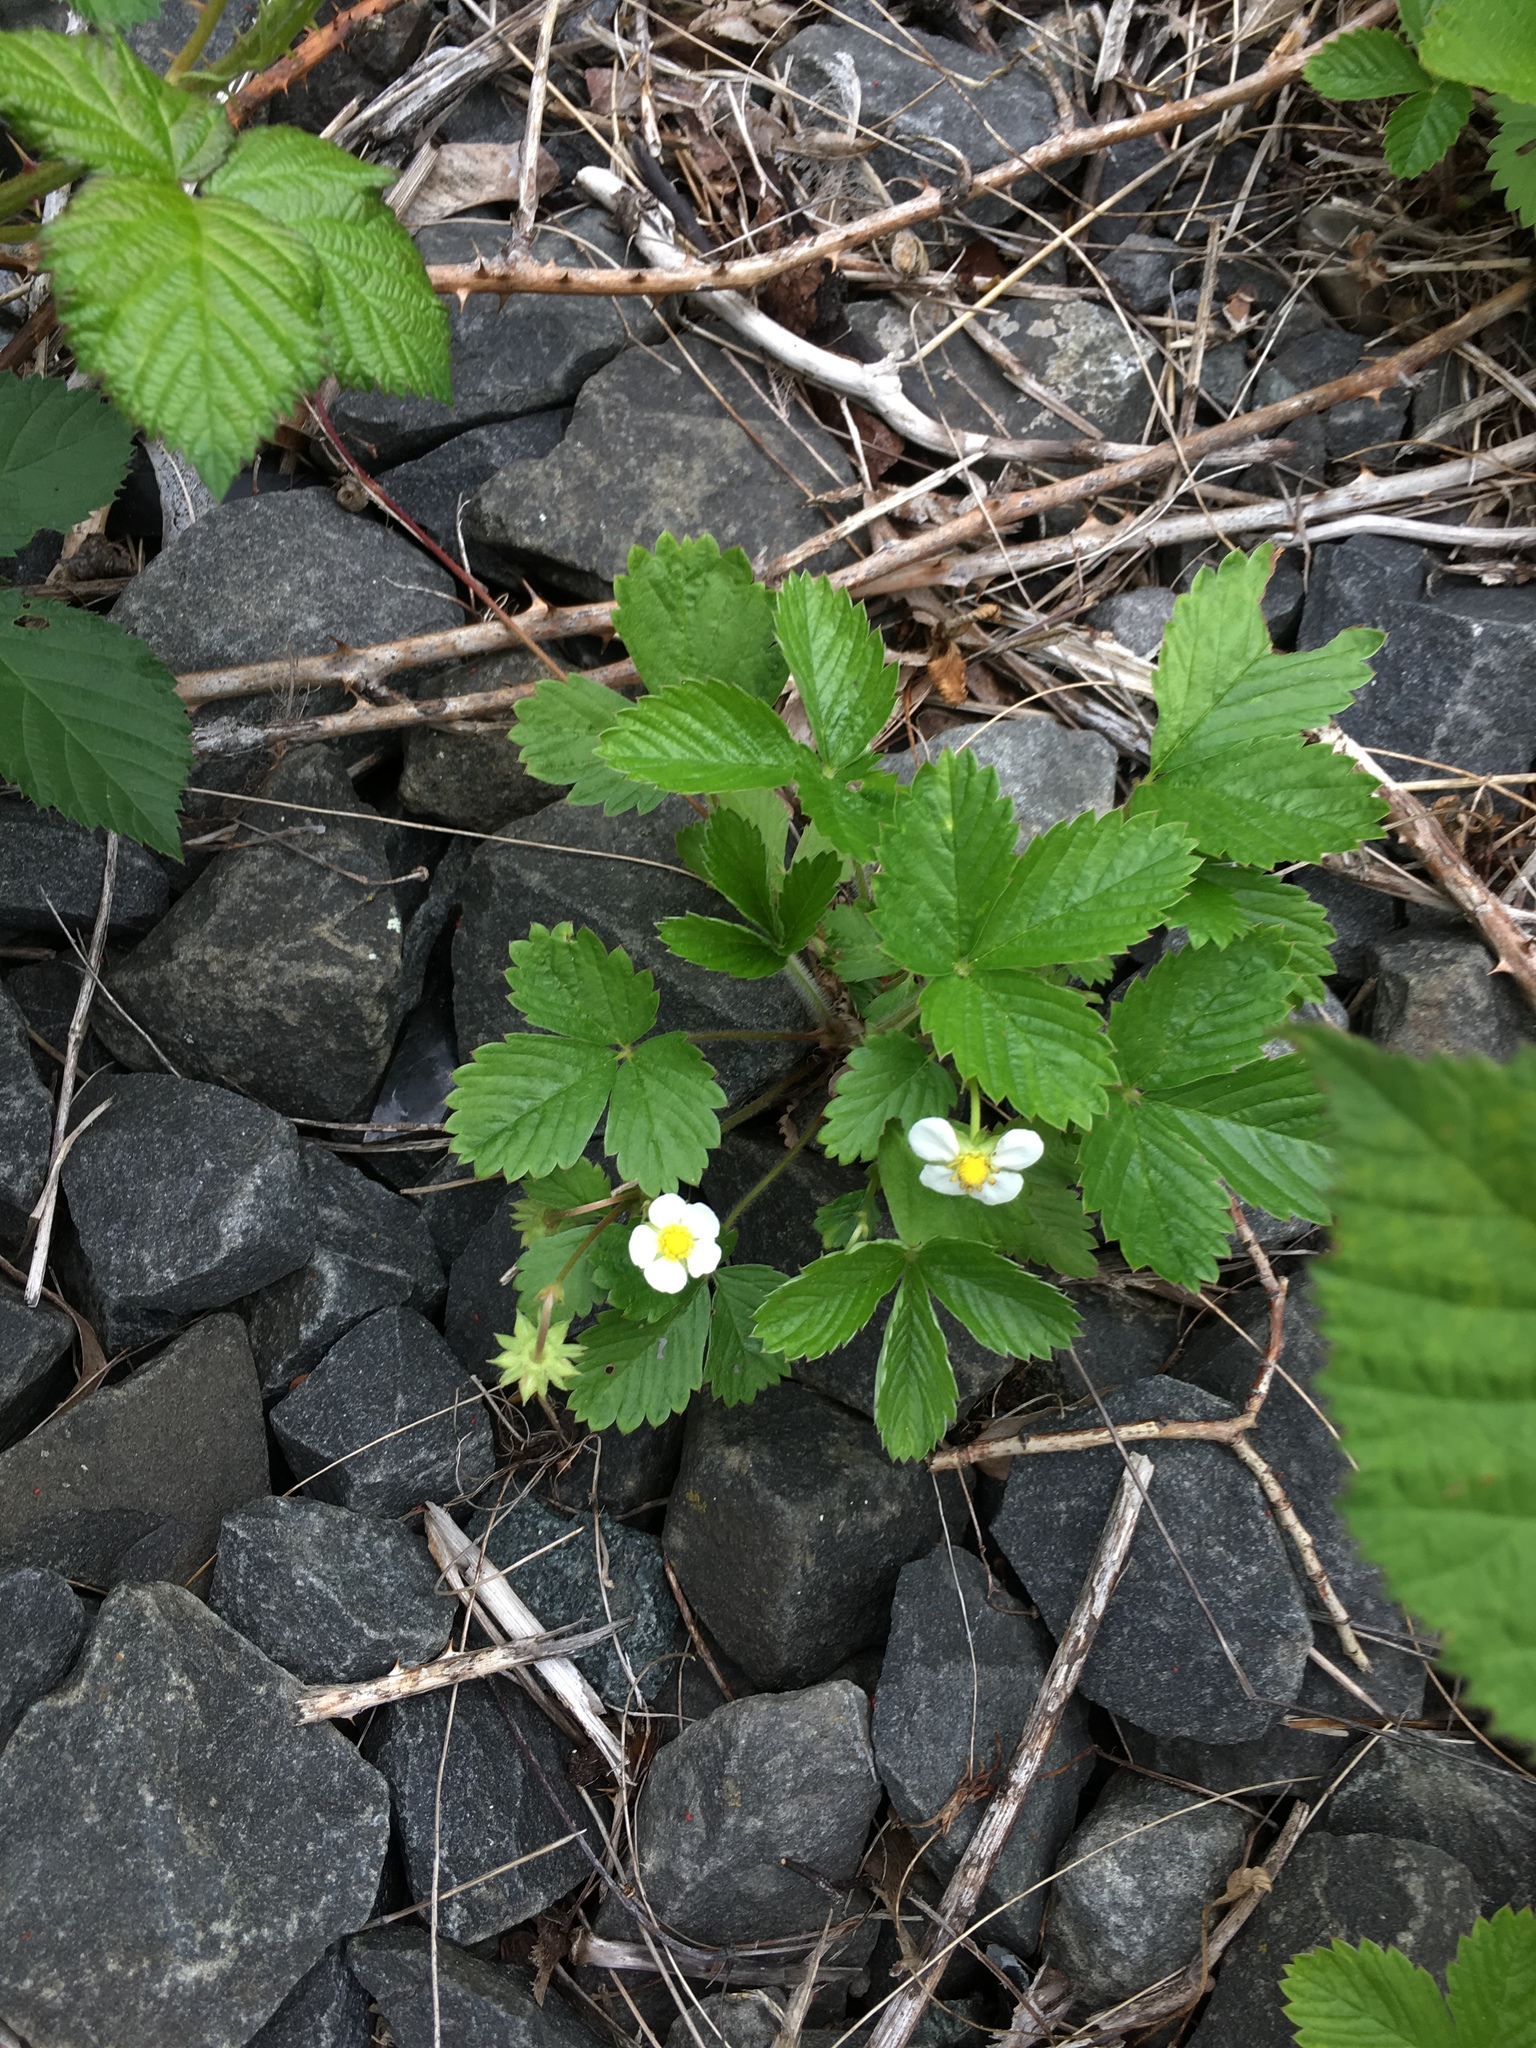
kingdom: Plantae
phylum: Tracheophyta
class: Magnoliopsida
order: Rosales
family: Rosaceae
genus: Fragaria
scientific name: Fragaria vesca
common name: Wild strawberry
